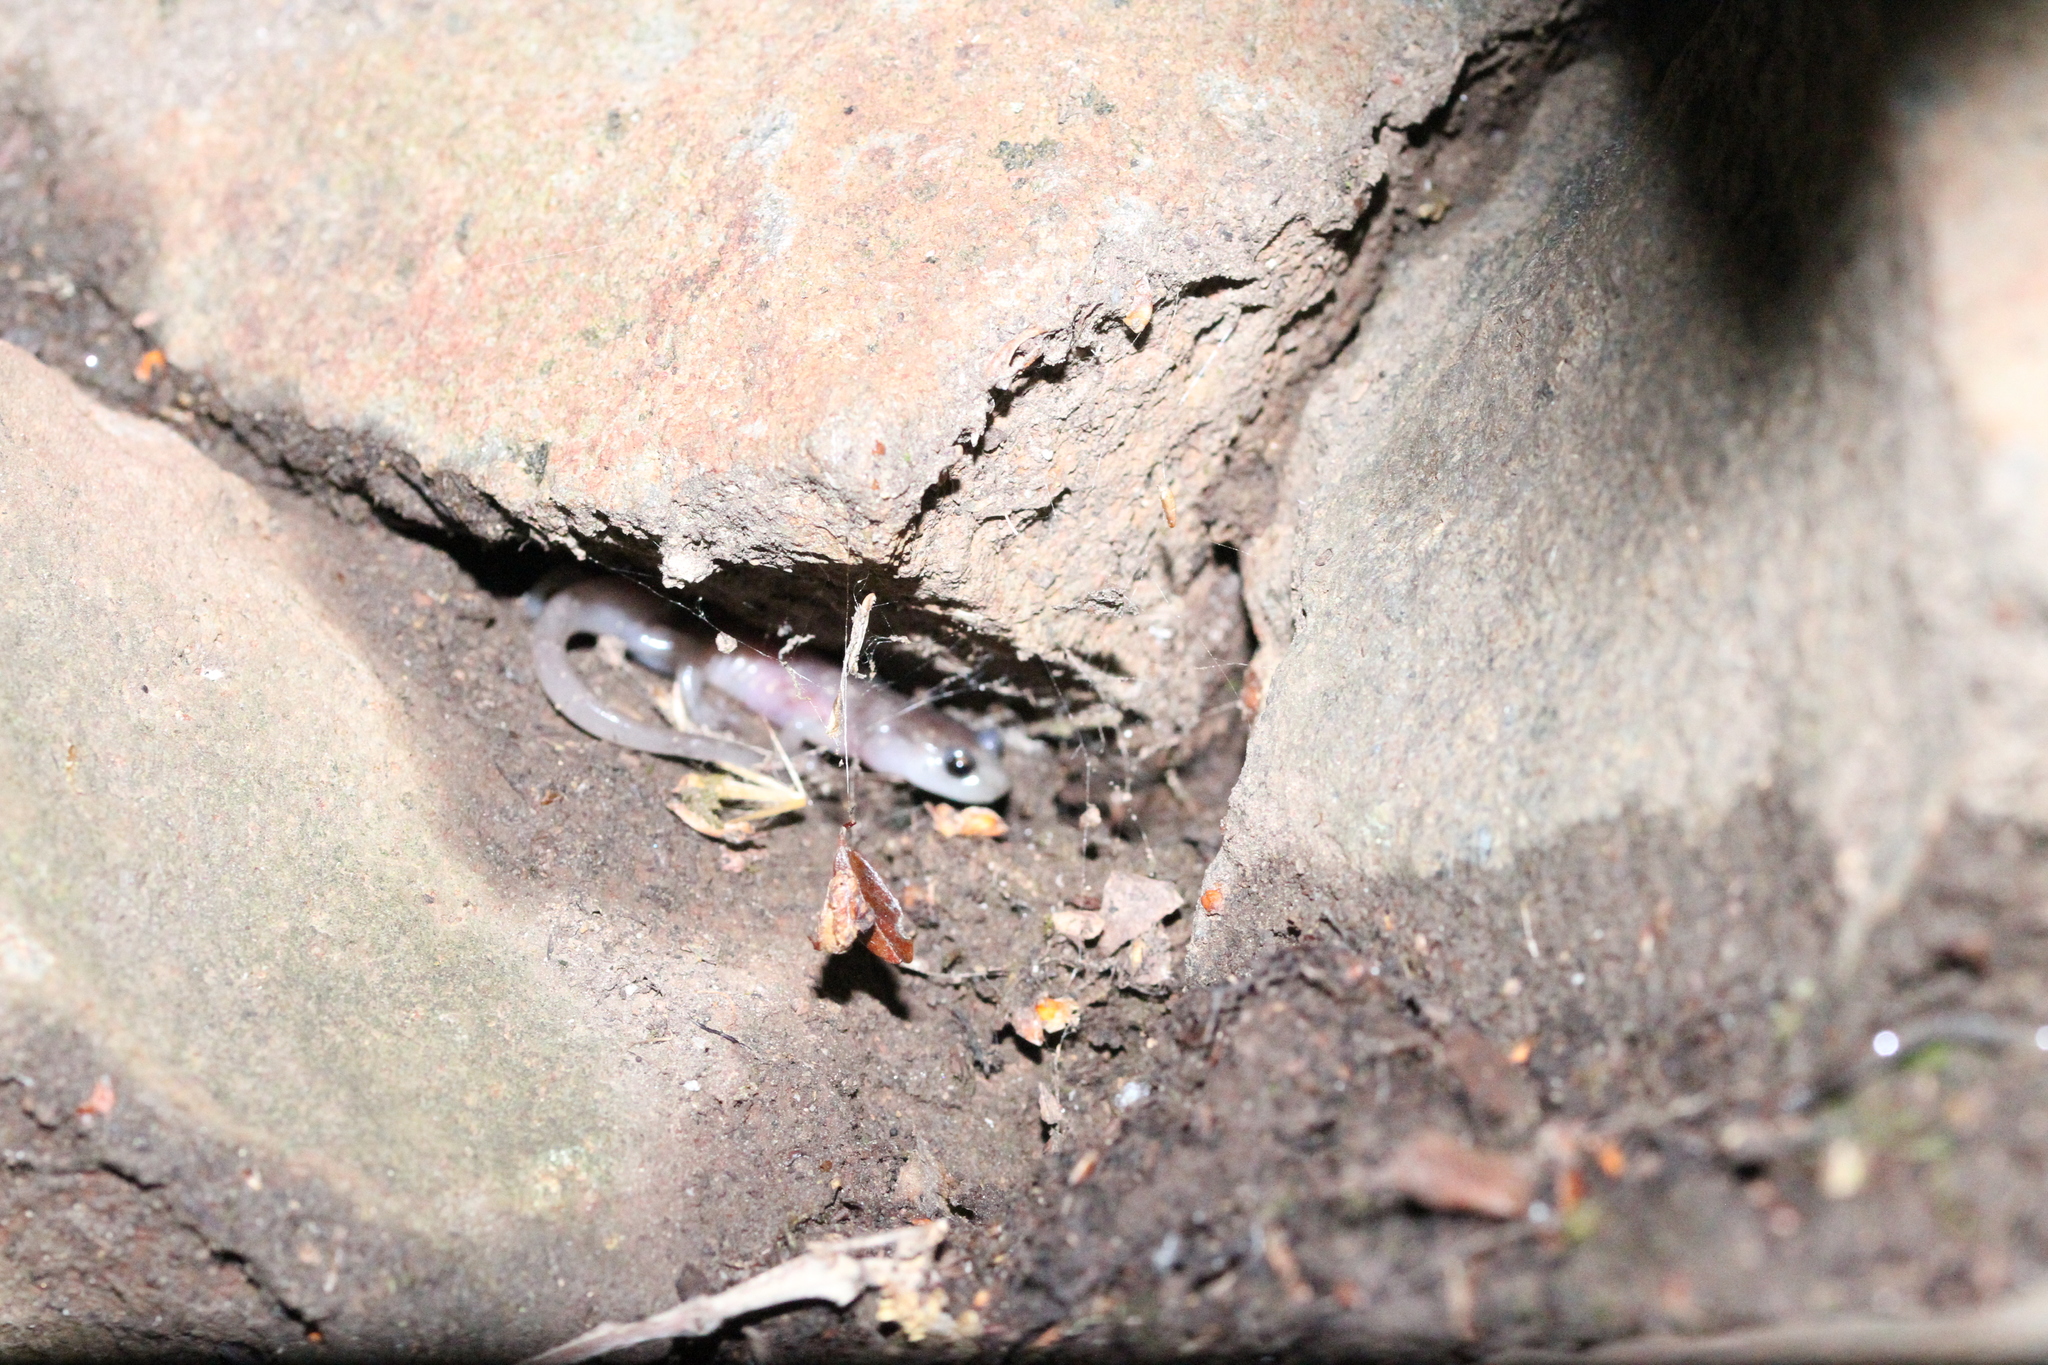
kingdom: Animalia
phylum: Chordata
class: Amphibia
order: Caudata
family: Plethodontidae
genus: Aneides
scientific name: Aneides lugubris
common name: Arboreal salamander
